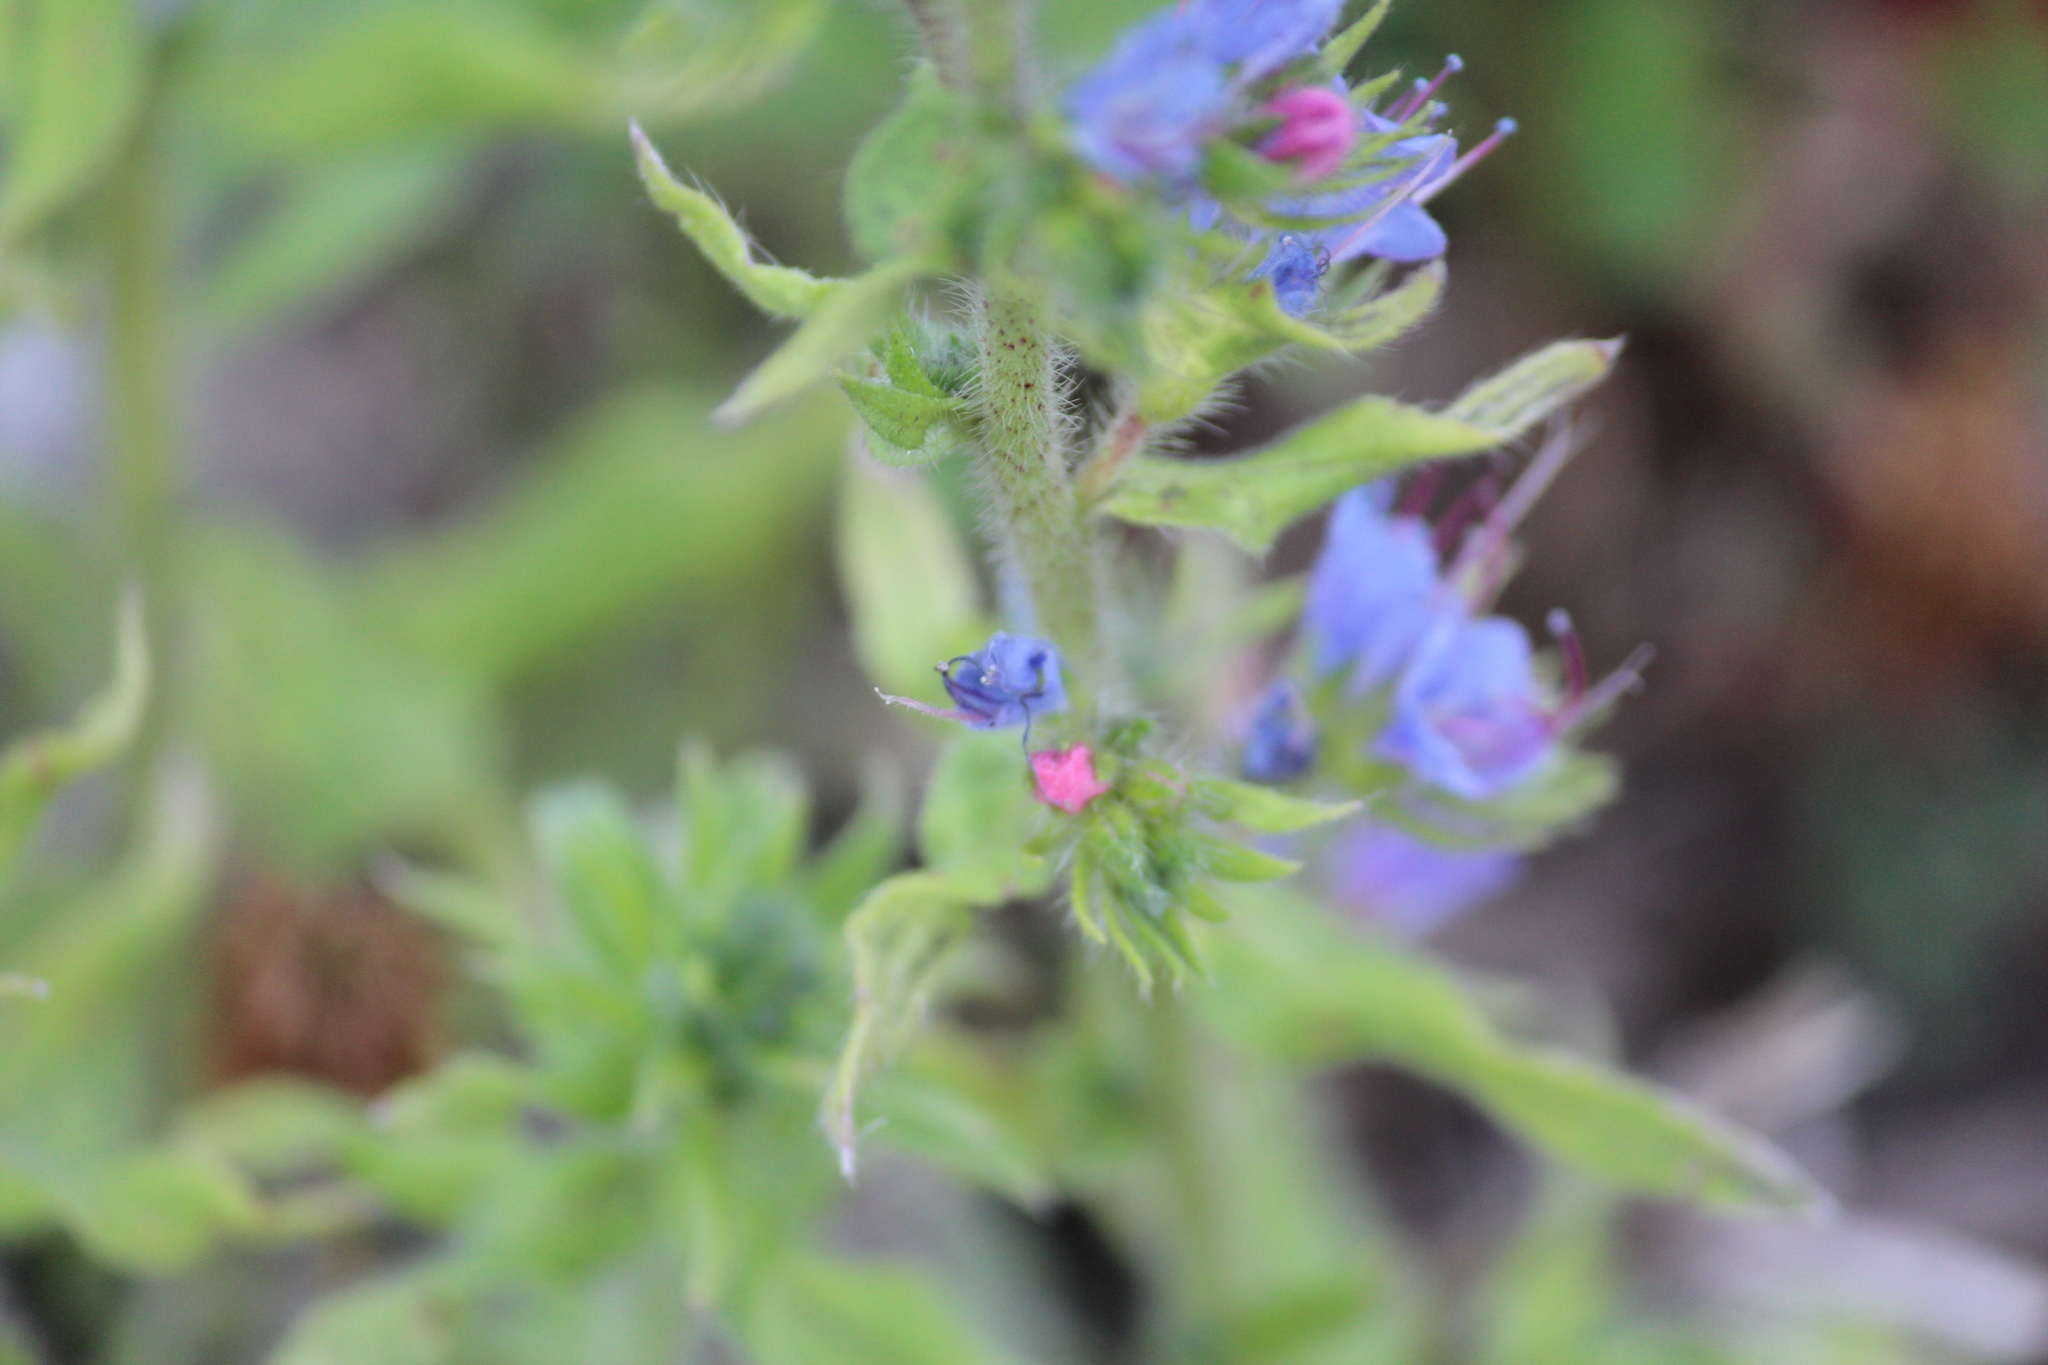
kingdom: Plantae
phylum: Tracheophyta
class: Magnoliopsida
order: Boraginales
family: Boraginaceae
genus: Echium
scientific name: Echium vulgare
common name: Common viper's bugloss
